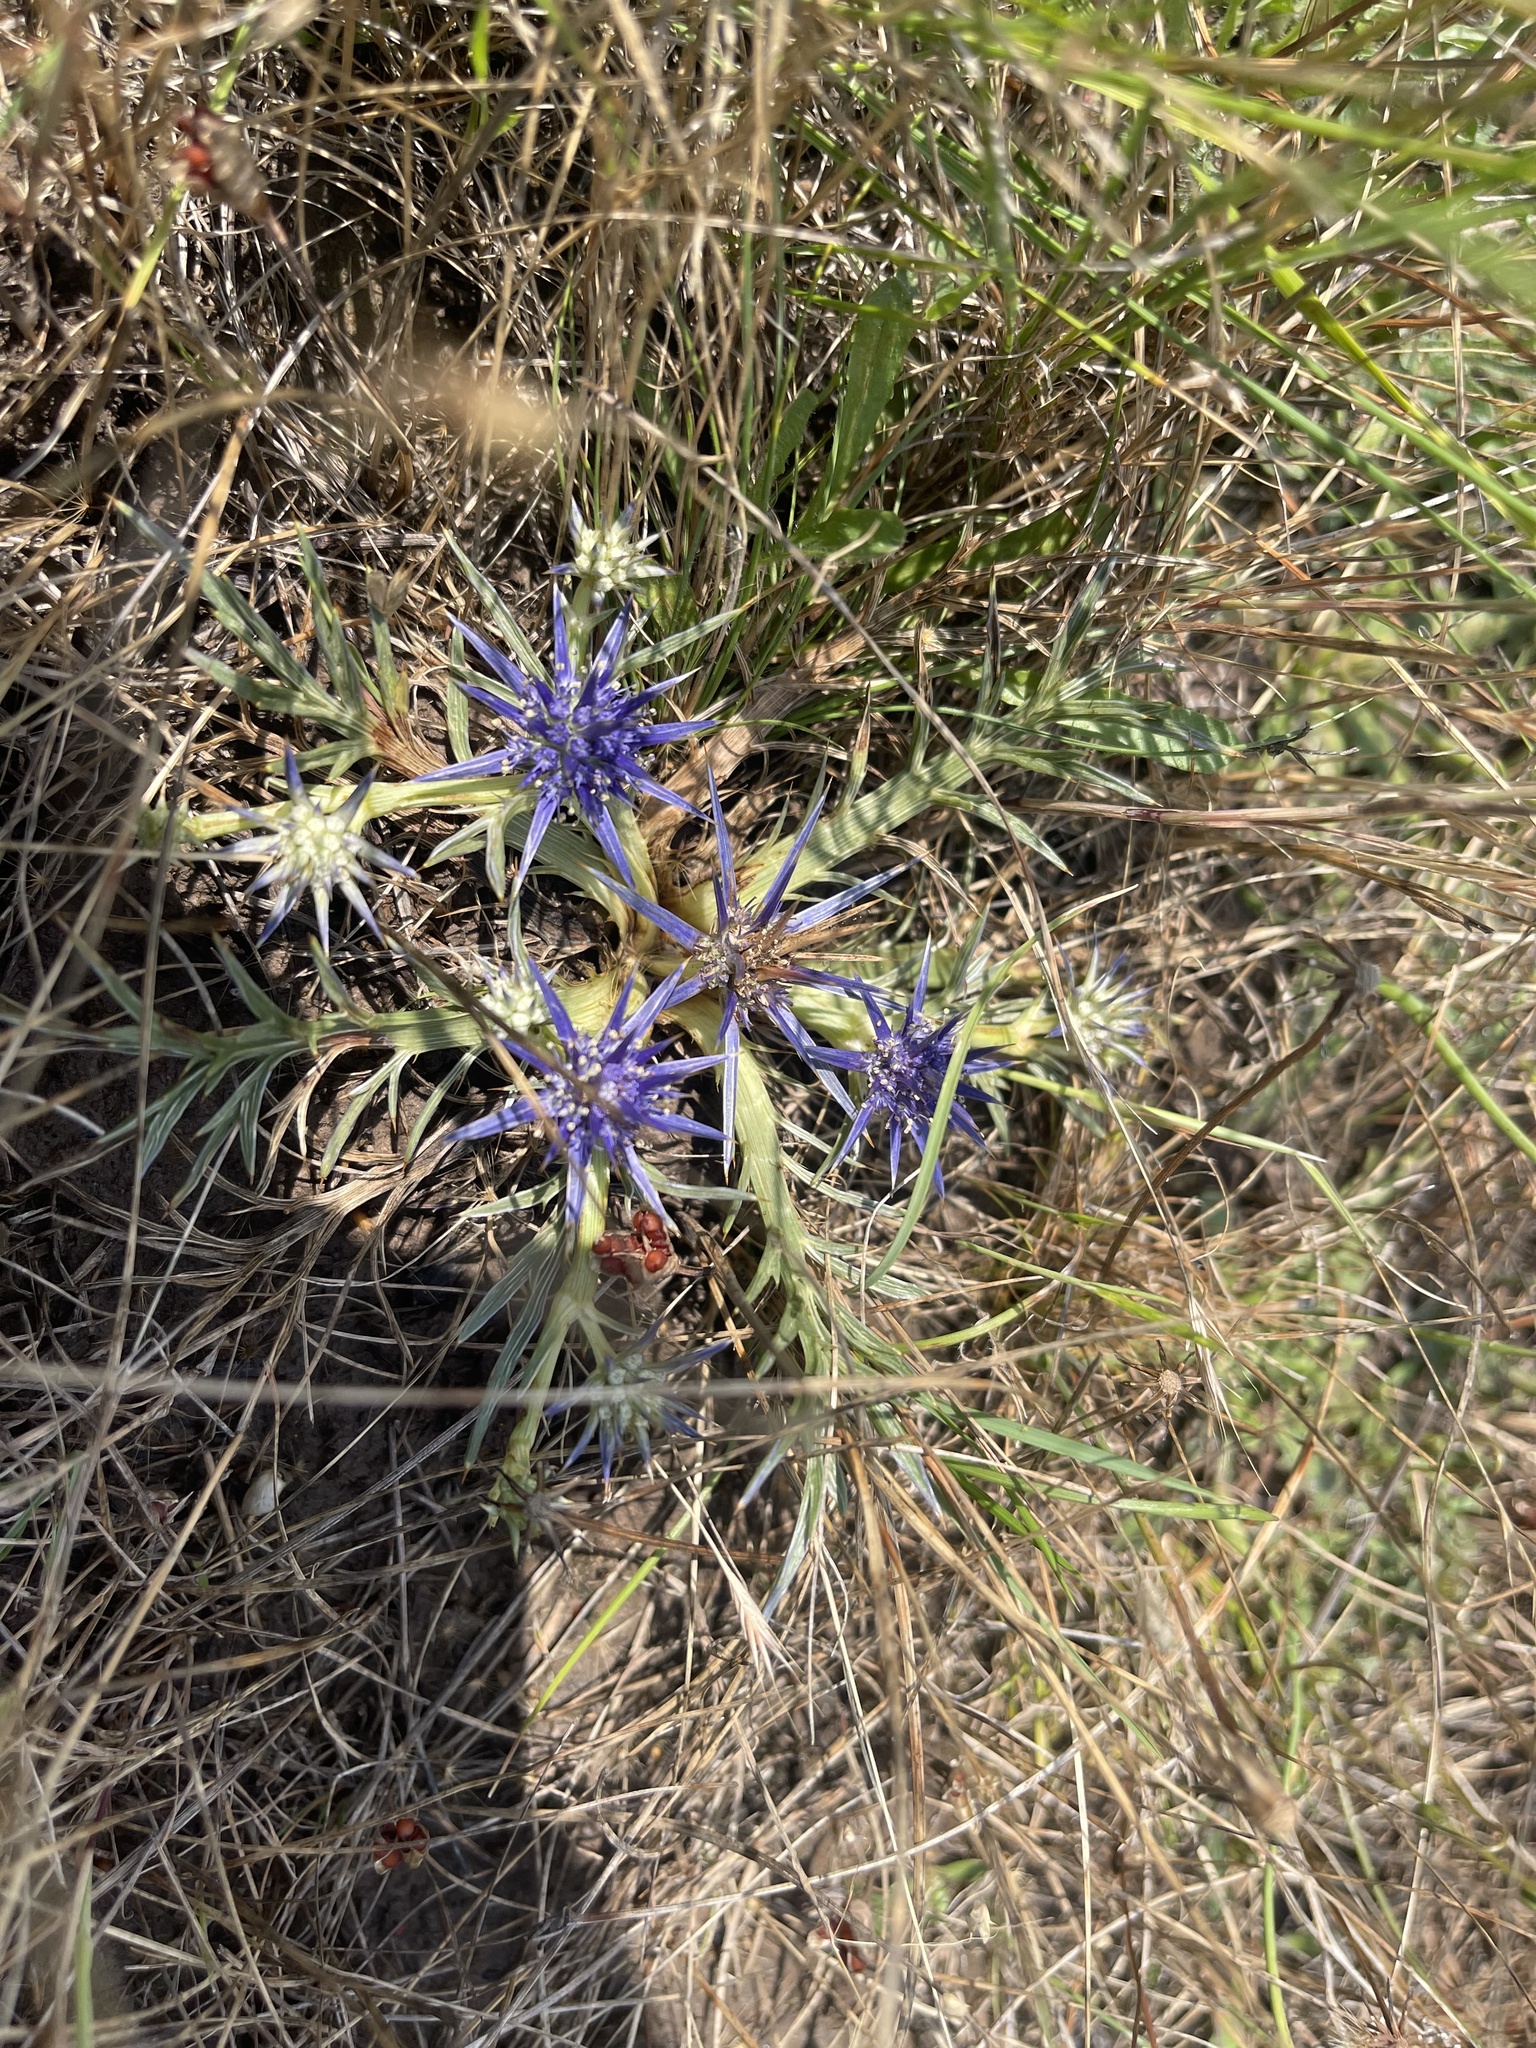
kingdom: Plantae
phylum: Tracheophyta
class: Magnoliopsida
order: Apiales
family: Apiaceae
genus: Eryngium
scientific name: Eryngium ovinum
